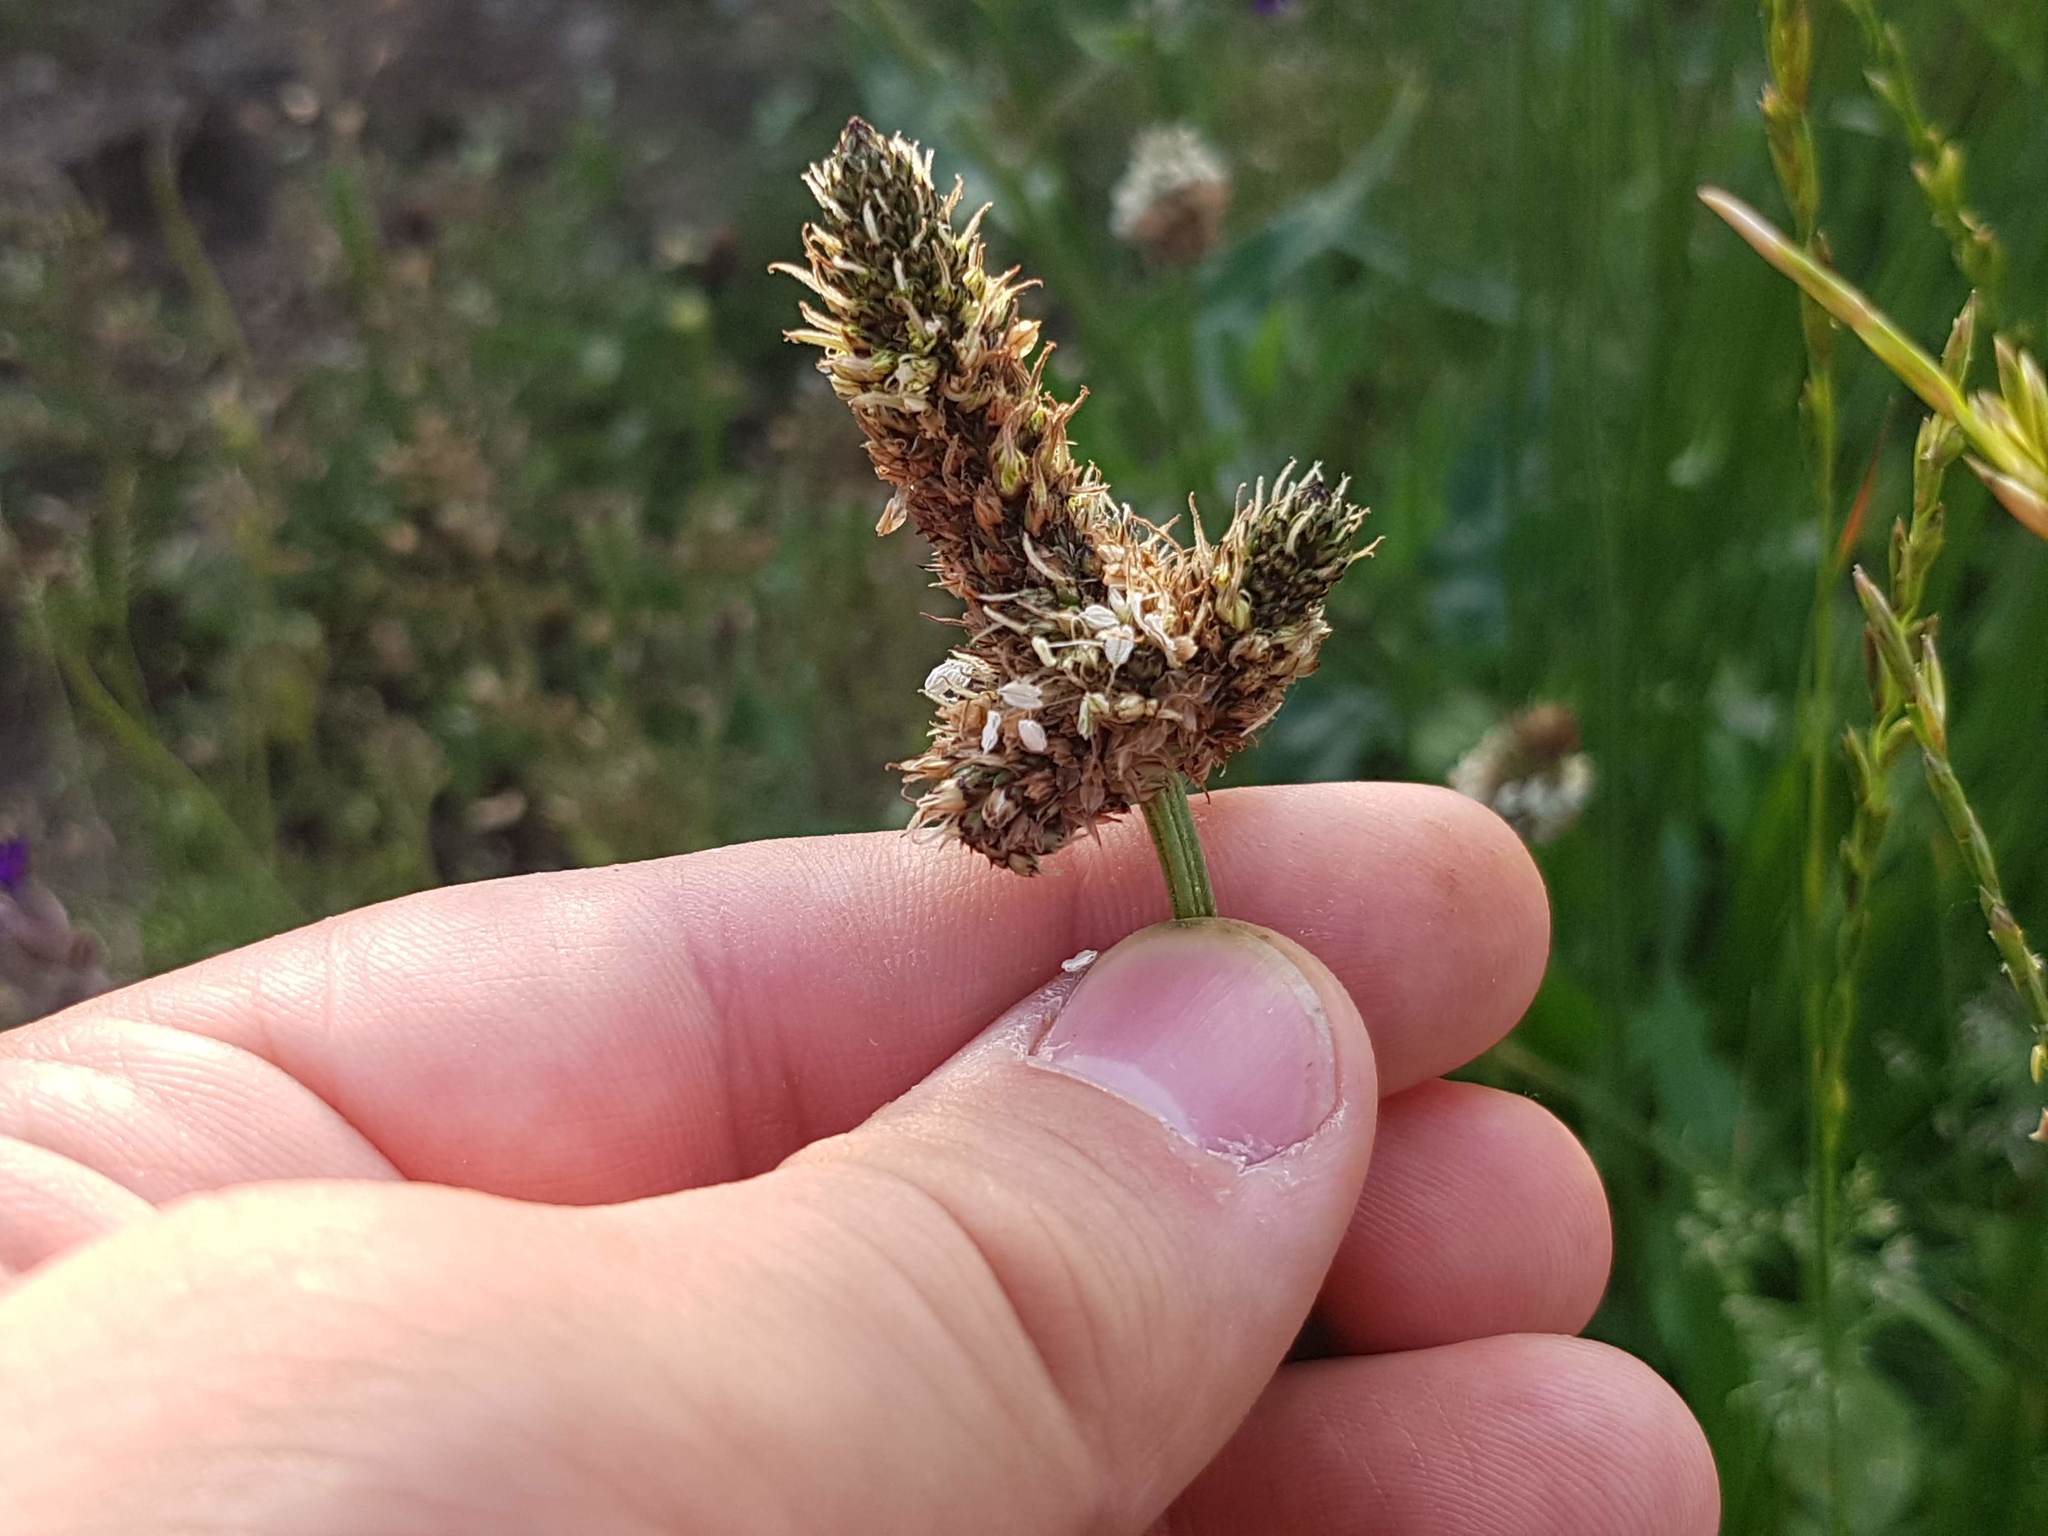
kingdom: Plantae
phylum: Tracheophyta
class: Magnoliopsida
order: Lamiales
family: Plantaginaceae
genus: Plantago
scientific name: Plantago lanceolata
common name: Ribwort plantain
